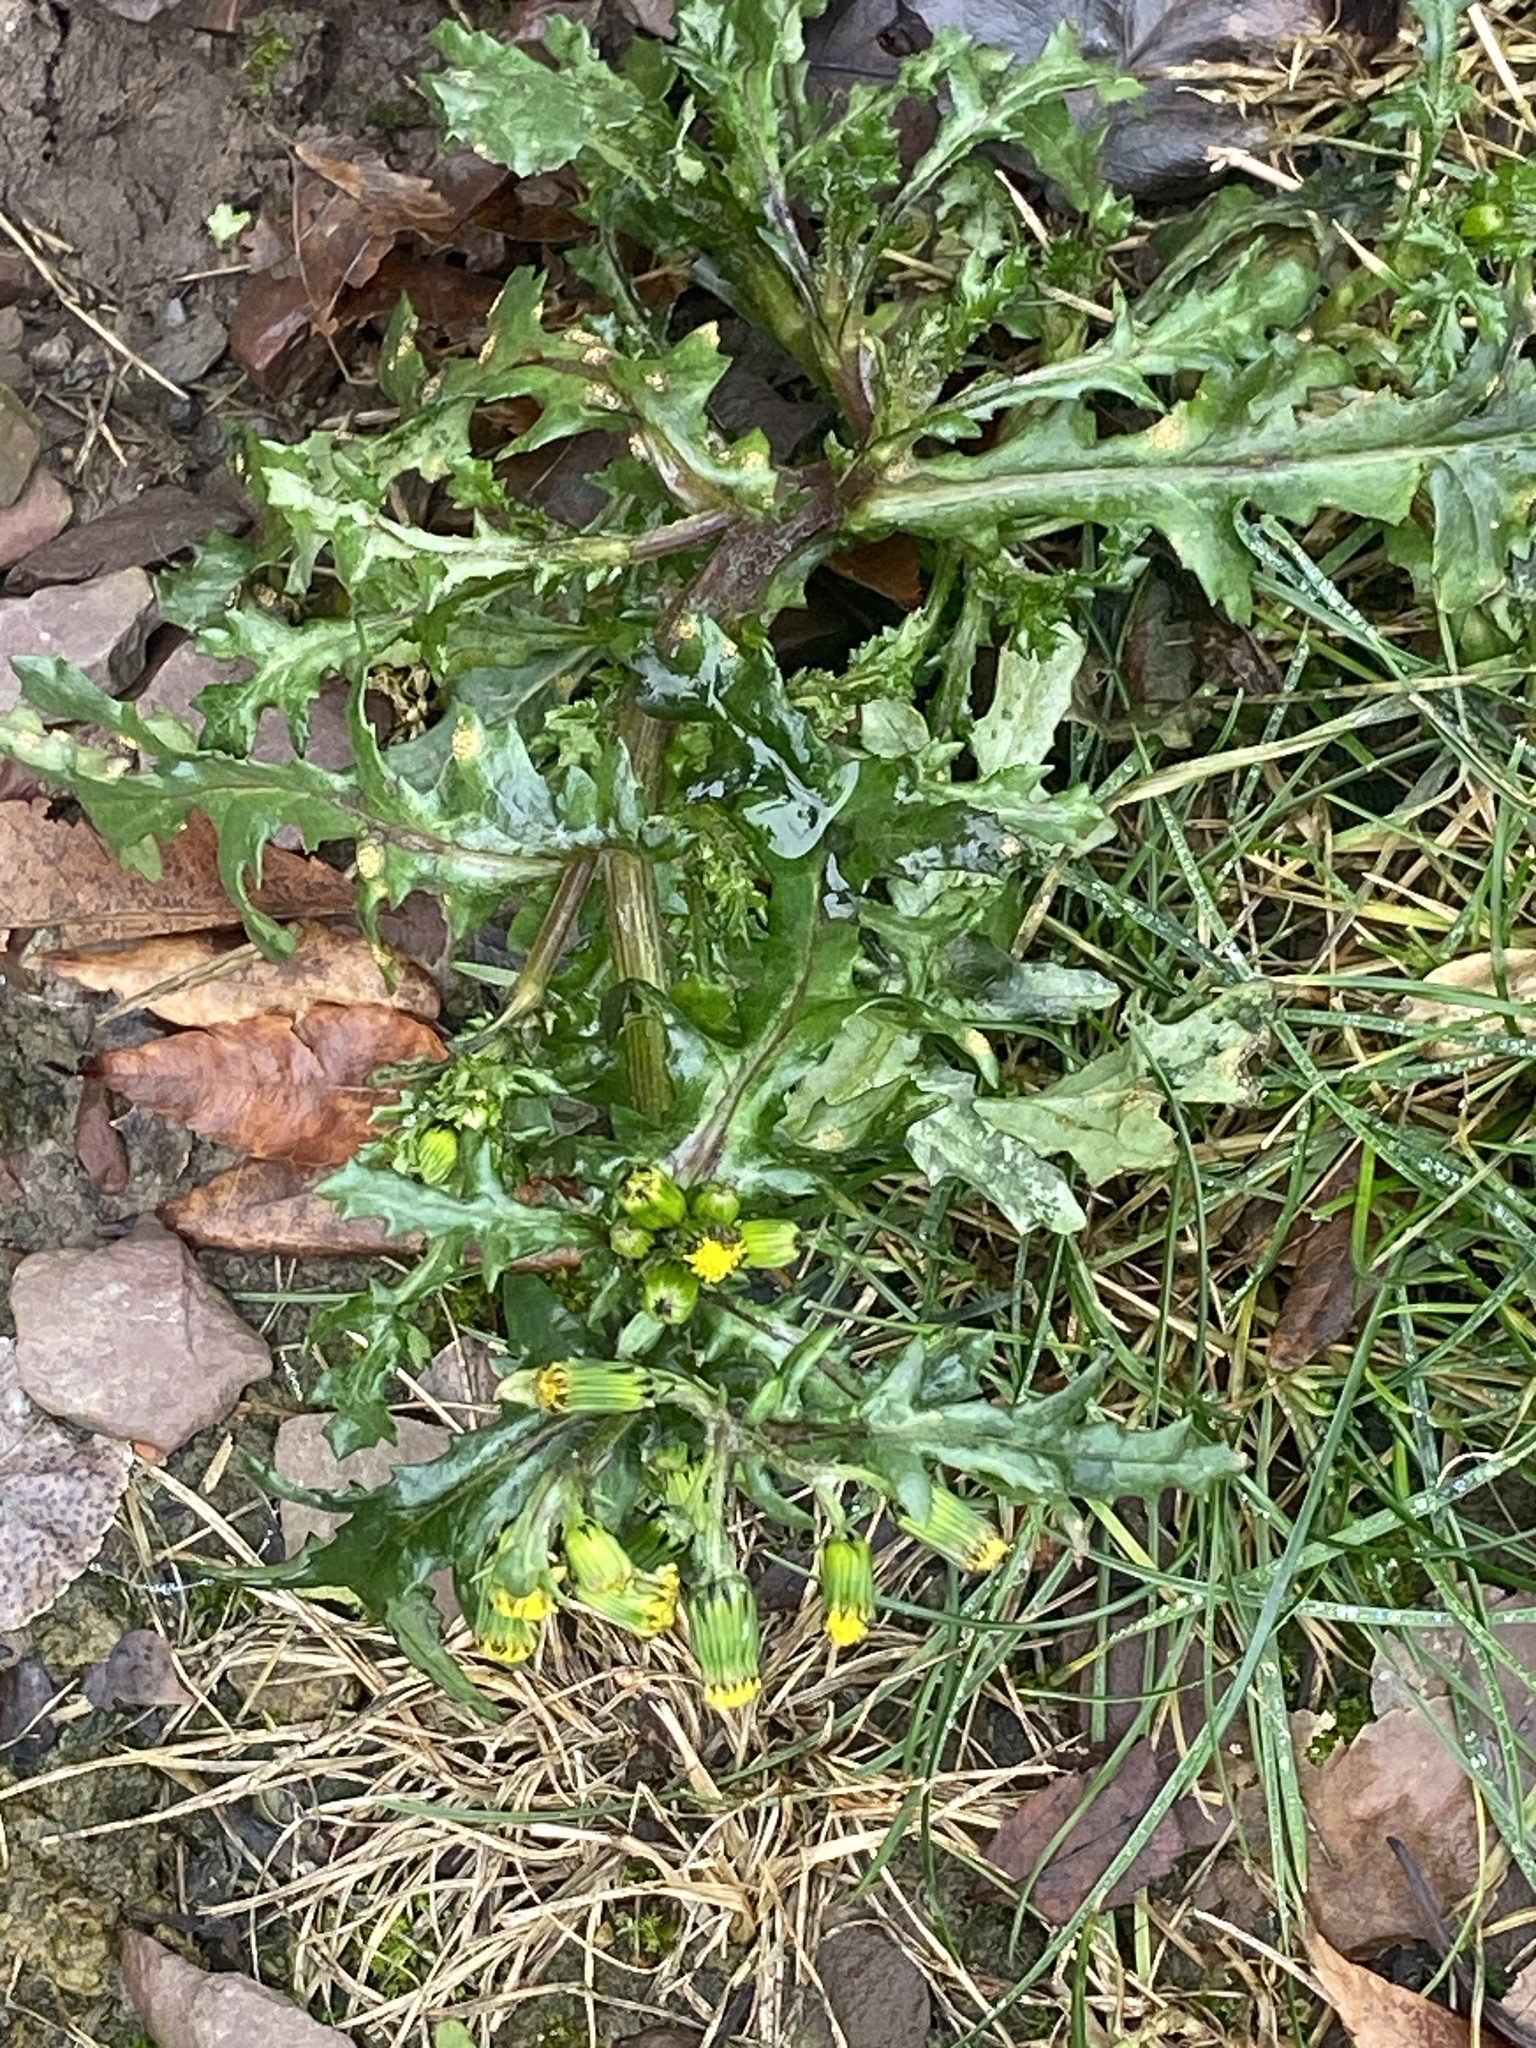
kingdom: Plantae
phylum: Tracheophyta
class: Magnoliopsida
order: Asterales
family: Asteraceae
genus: Senecio
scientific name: Senecio vulgaris
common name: Old-man-in-the-spring
